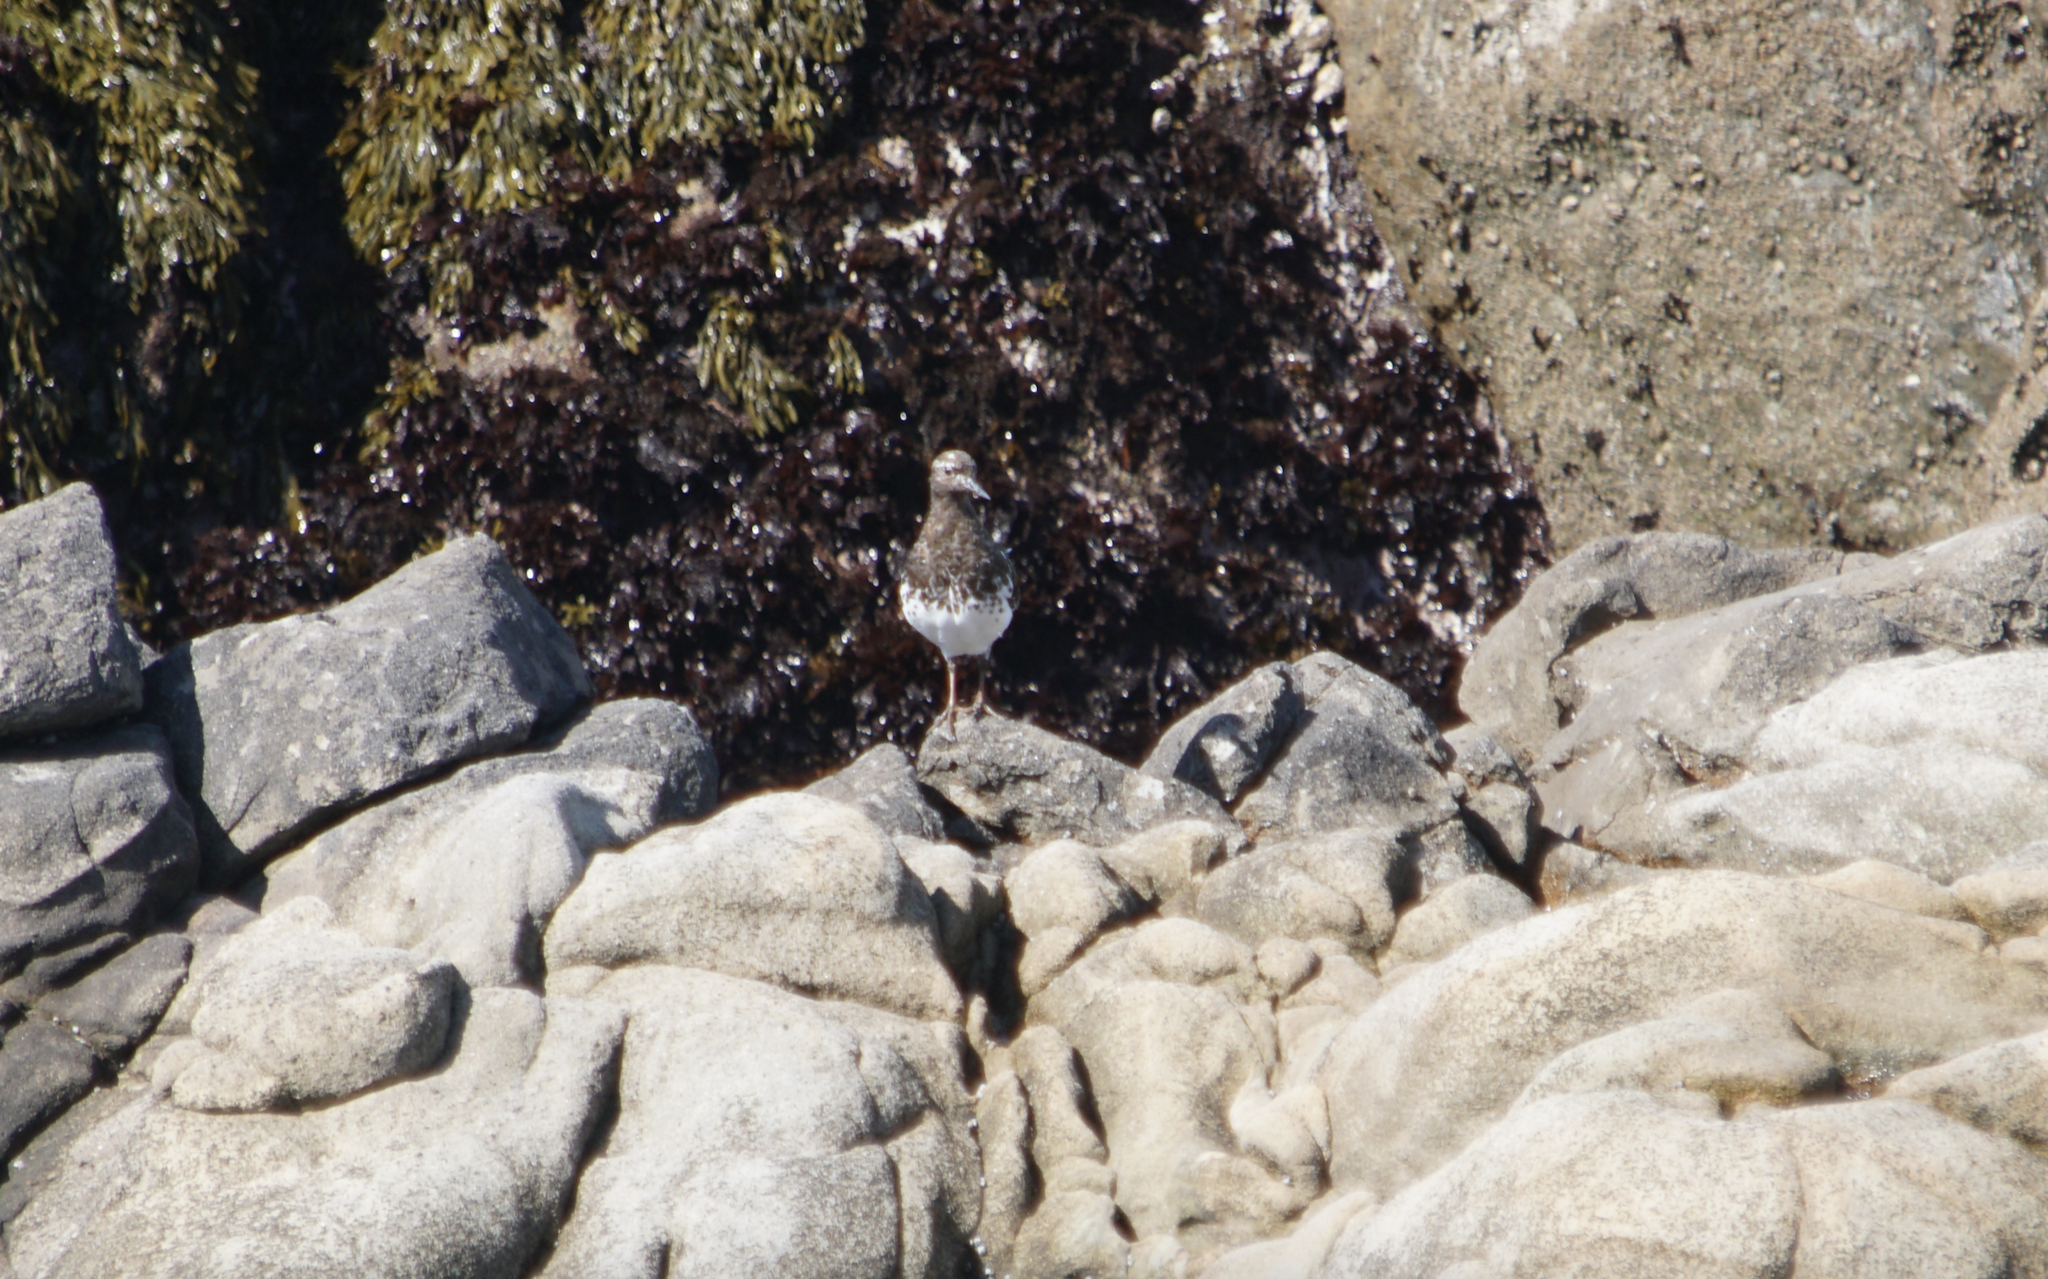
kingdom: Animalia
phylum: Chordata
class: Aves
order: Charadriiformes
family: Scolopacidae
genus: Arenaria
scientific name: Arenaria melanocephala
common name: Black turnstone
